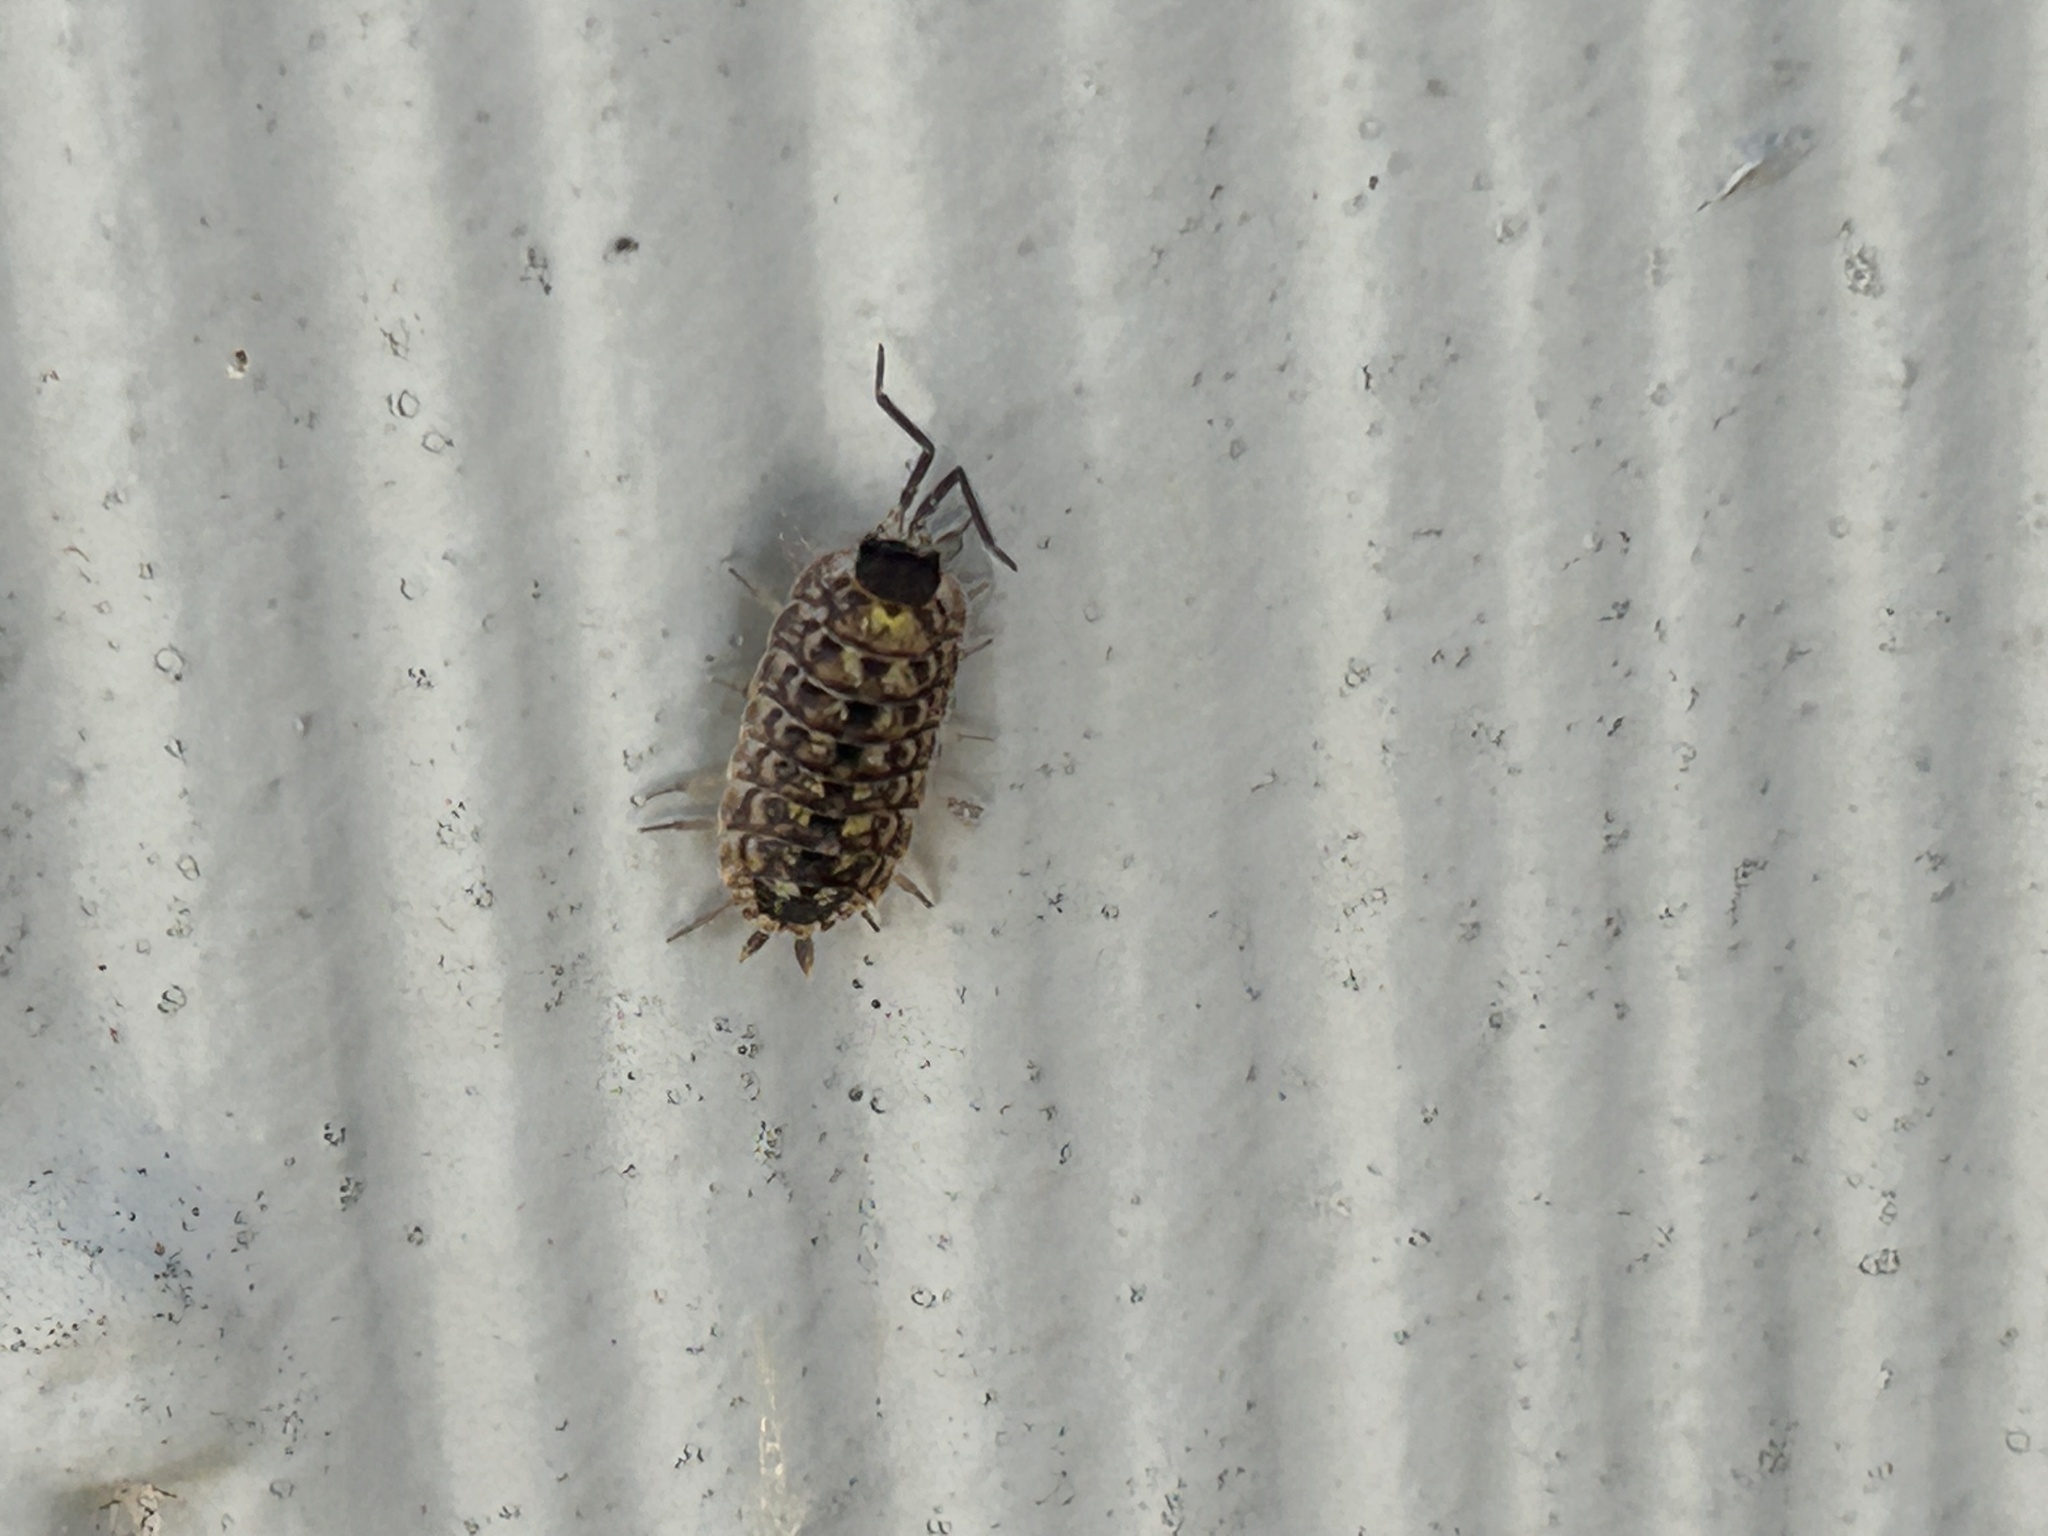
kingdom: Animalia
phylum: Arthropoda
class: Malacostraca
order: Isopoda
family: Porcellionidae
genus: Porcellio
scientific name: Porcellio spinicornis
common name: Painted woodlouse
